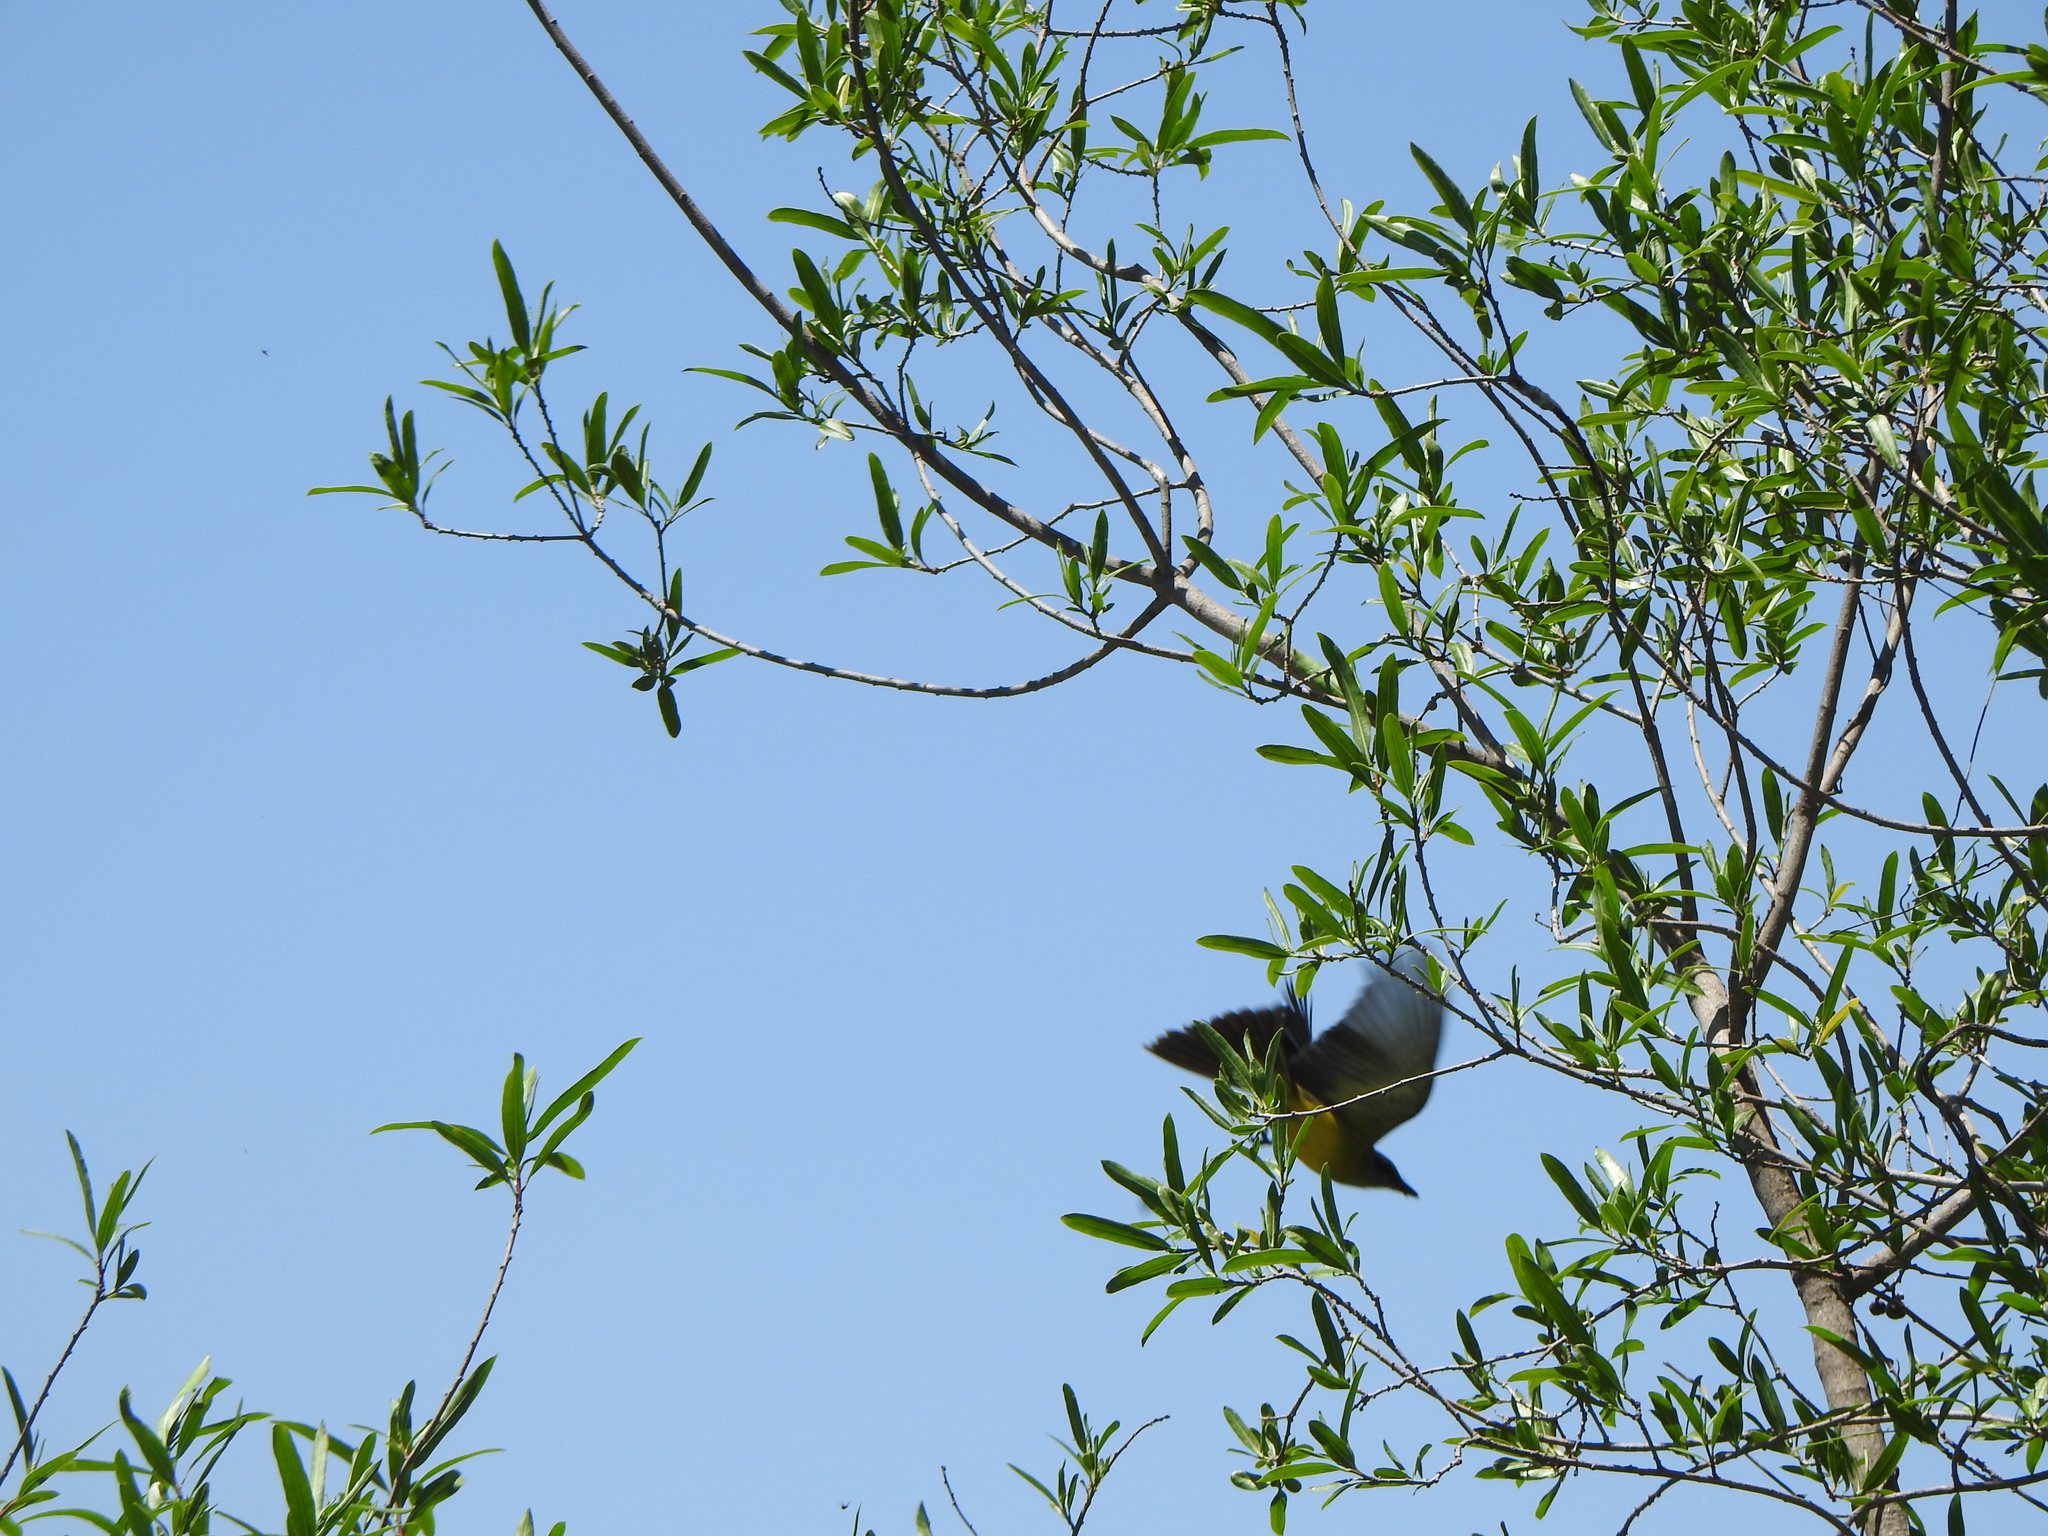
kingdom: Animalia
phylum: Chordata
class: Aves
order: Passeriformes
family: Tyrannidae
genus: Tyrannus
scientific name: Tyrannus melancholicus
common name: Tropical kingbird
